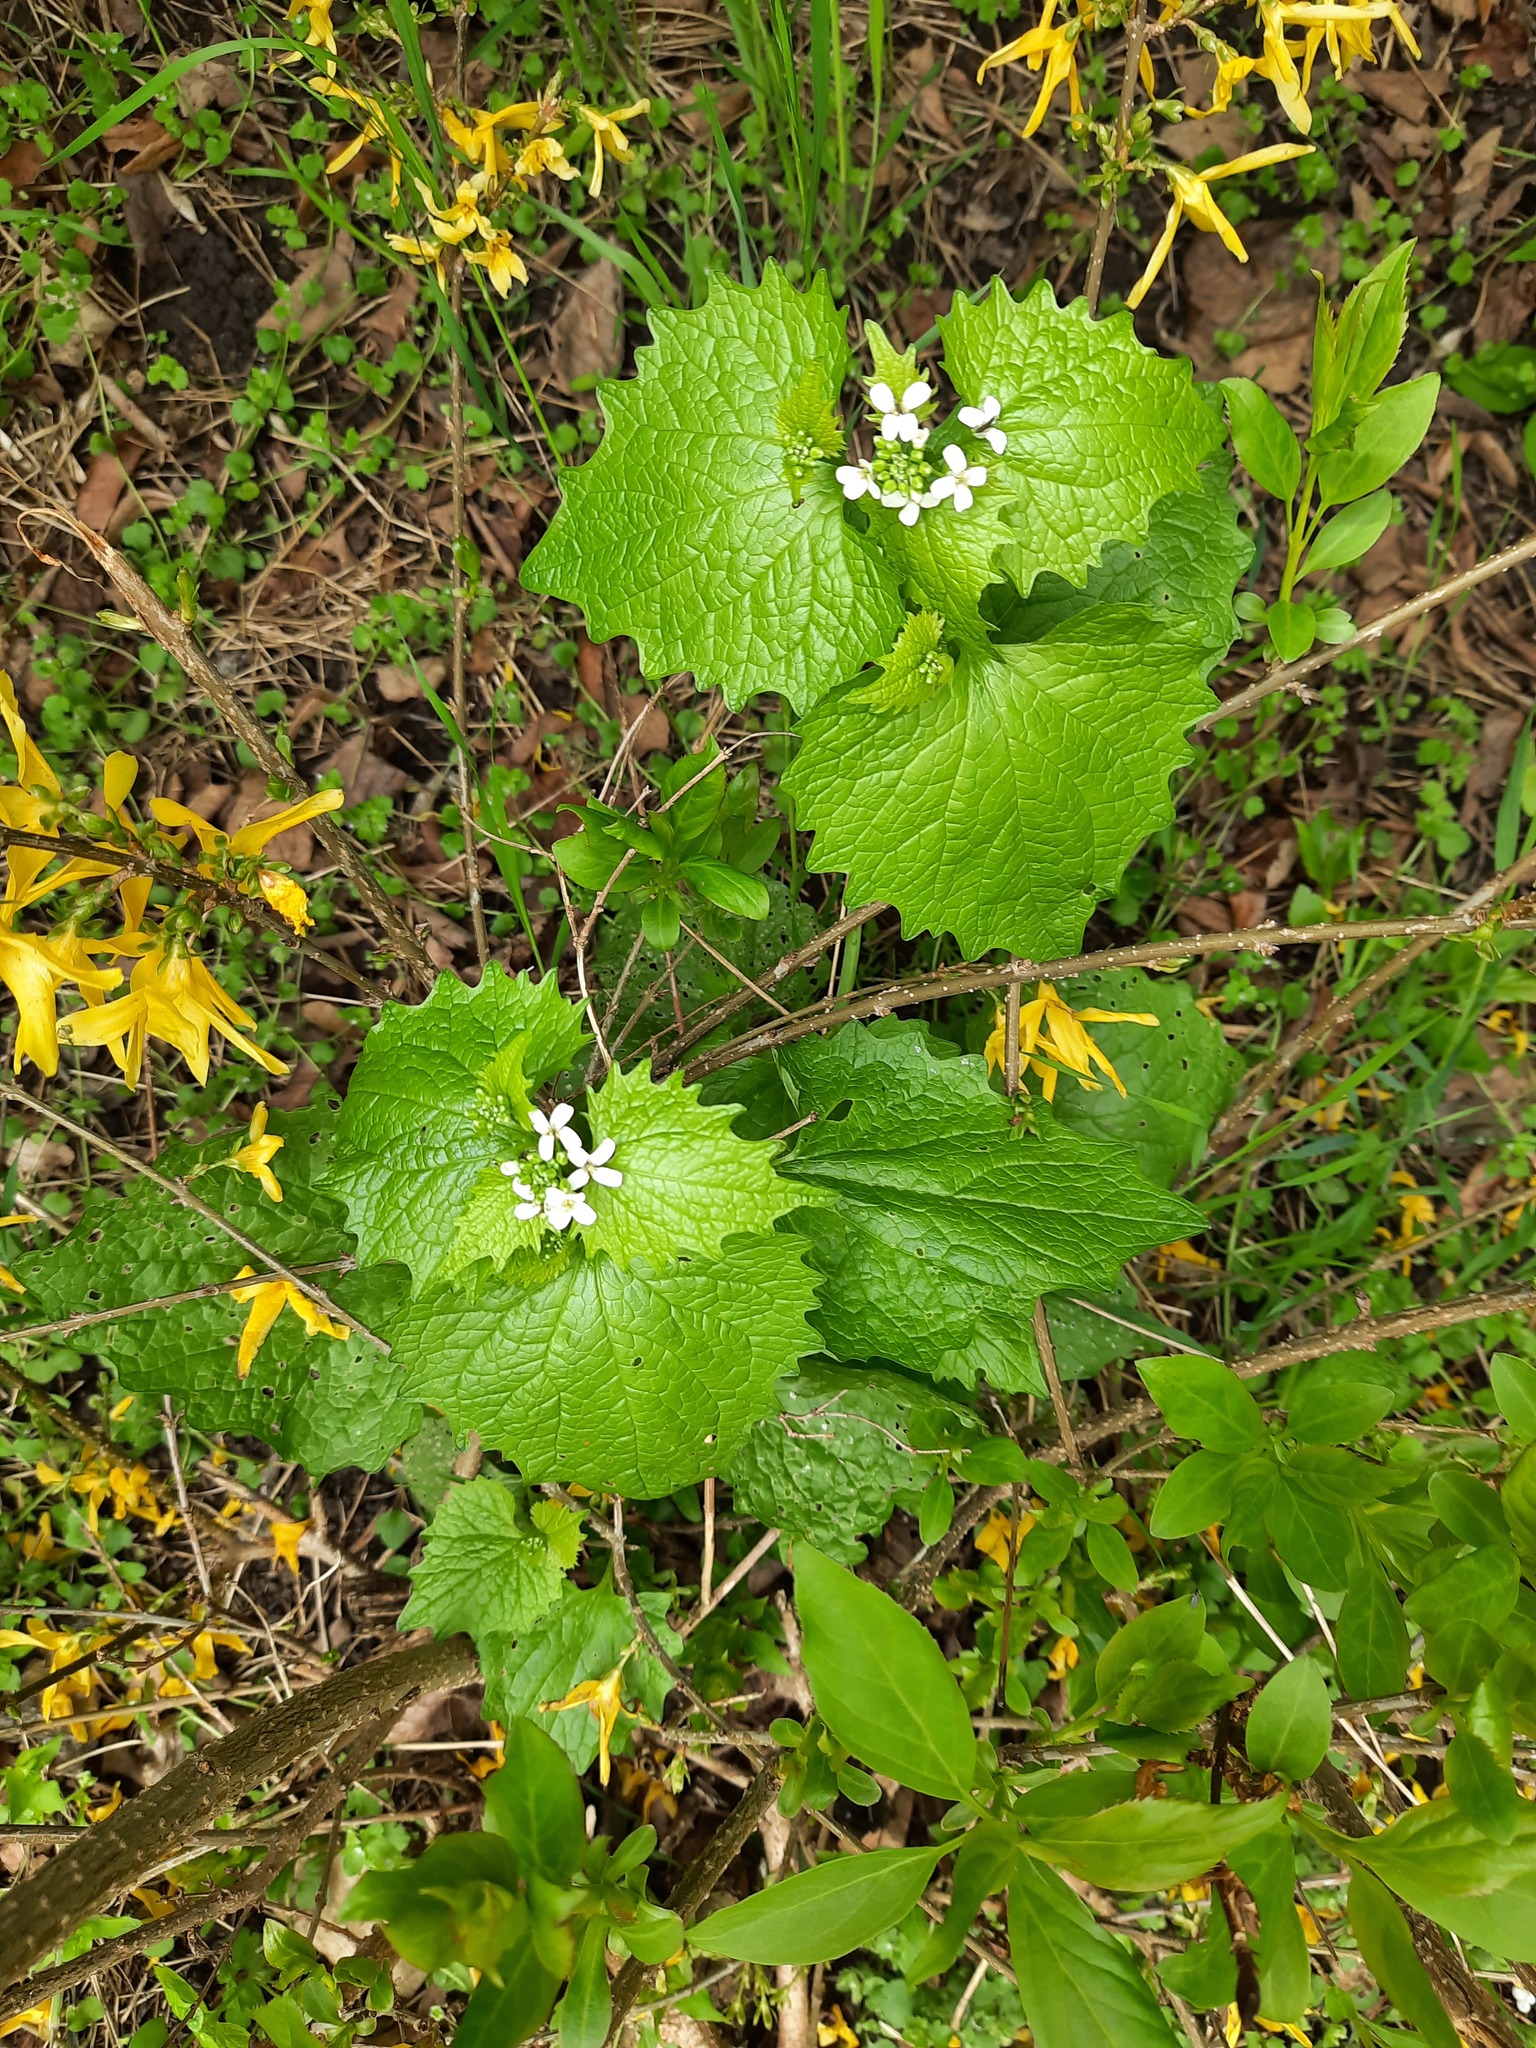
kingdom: Plantae
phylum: Tracheophyta
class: Magnoliopsida
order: Brassicales
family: Brassicaceae
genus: Alliaria
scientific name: Alliaria petiolata
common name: Garlic mustard
